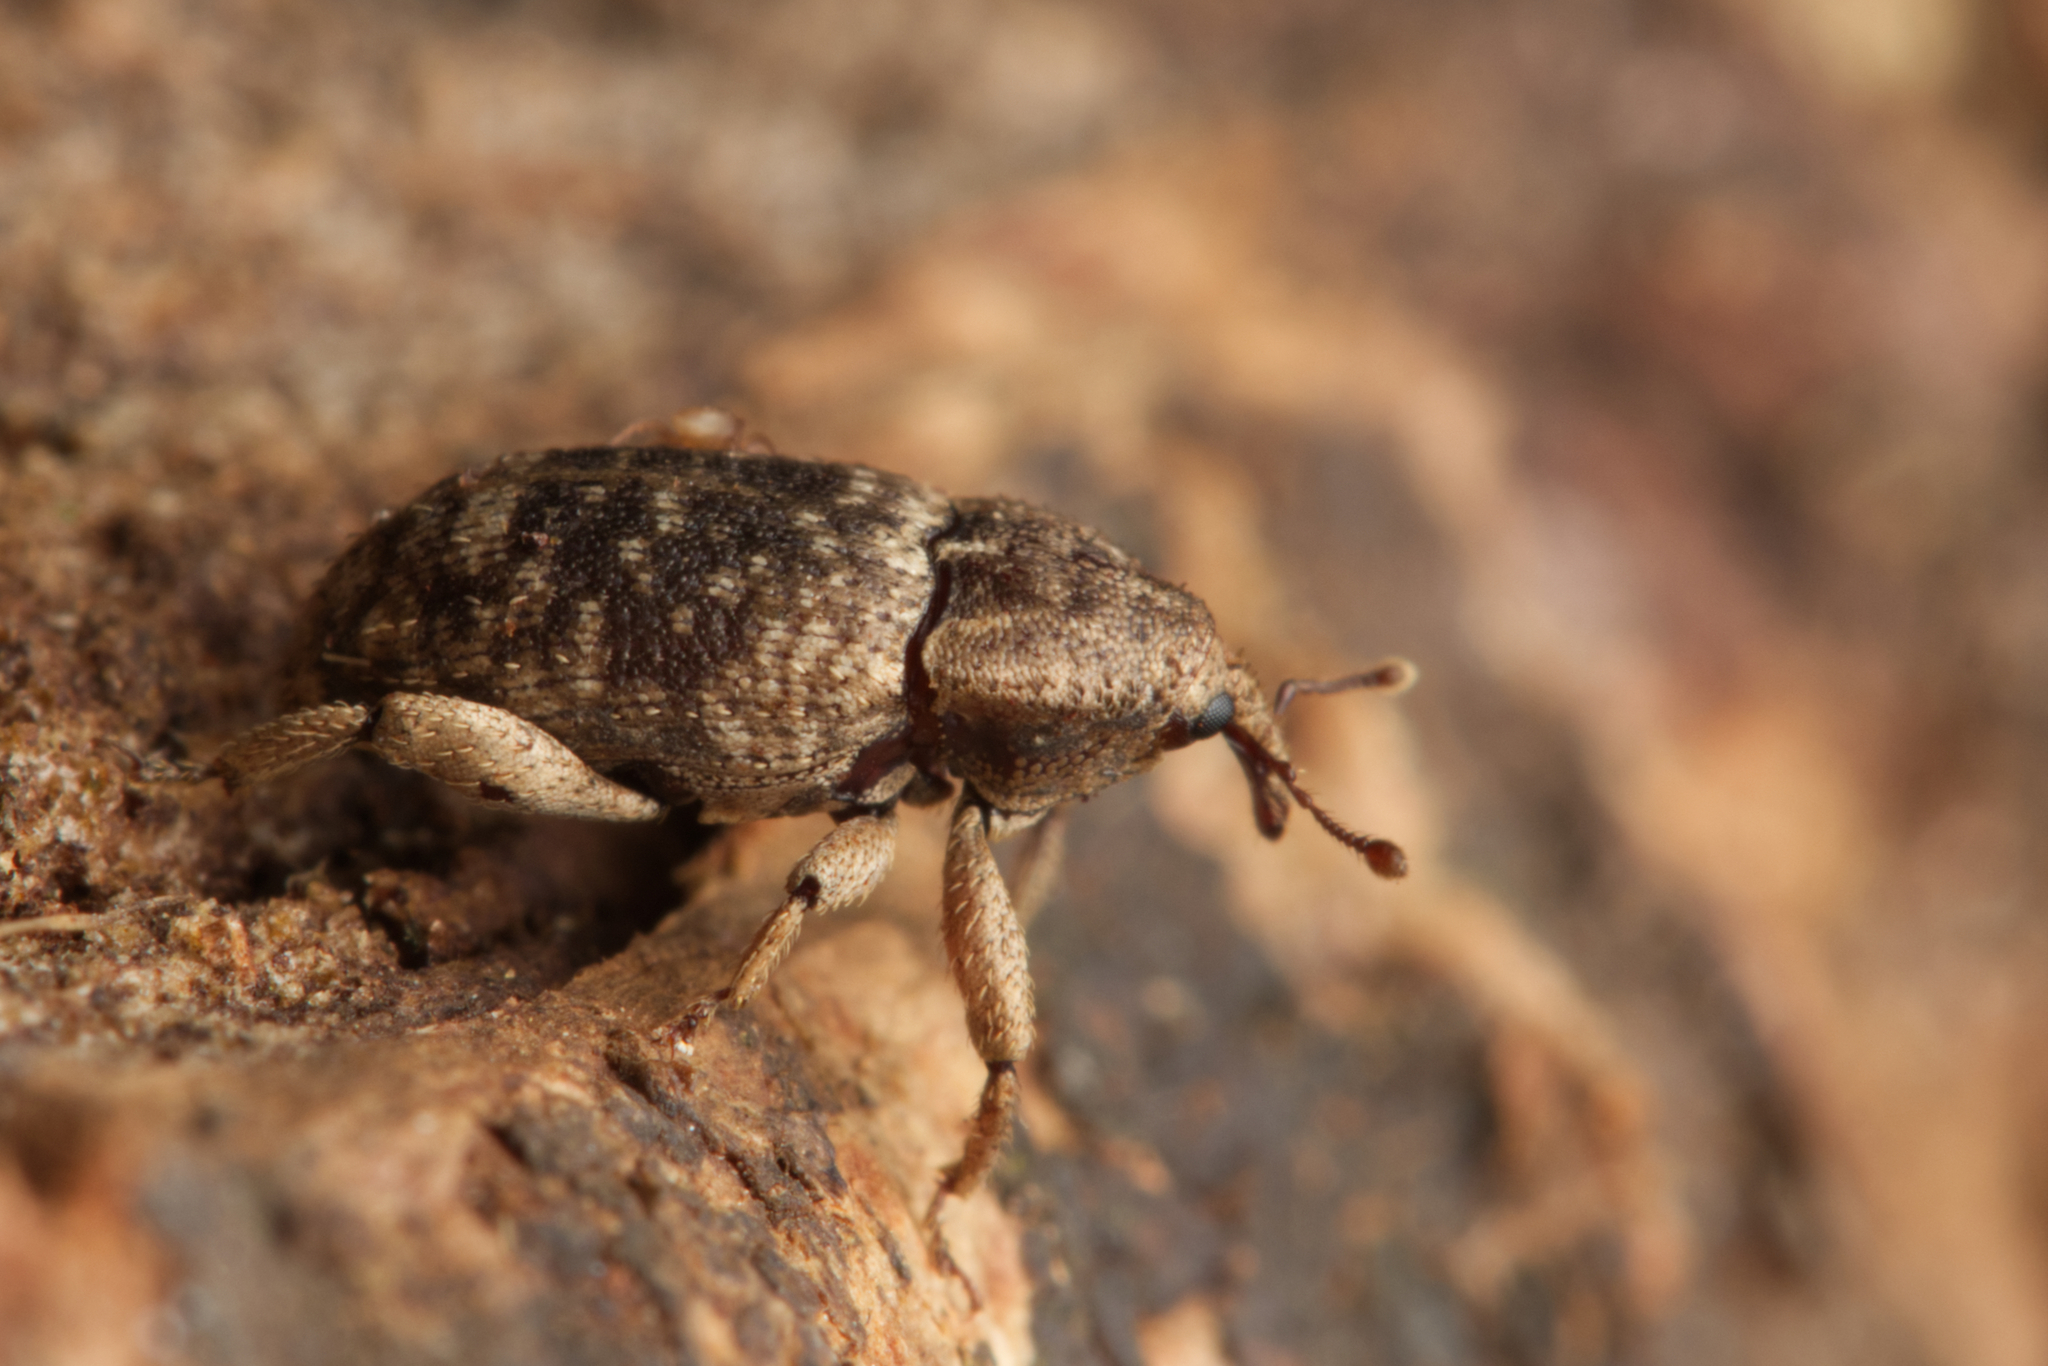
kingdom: Animalia
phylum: Arthropoda
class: Insecta
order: Coleoptera
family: Curculionidae
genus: Mitrastethus
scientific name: Mitrastethus australiae
